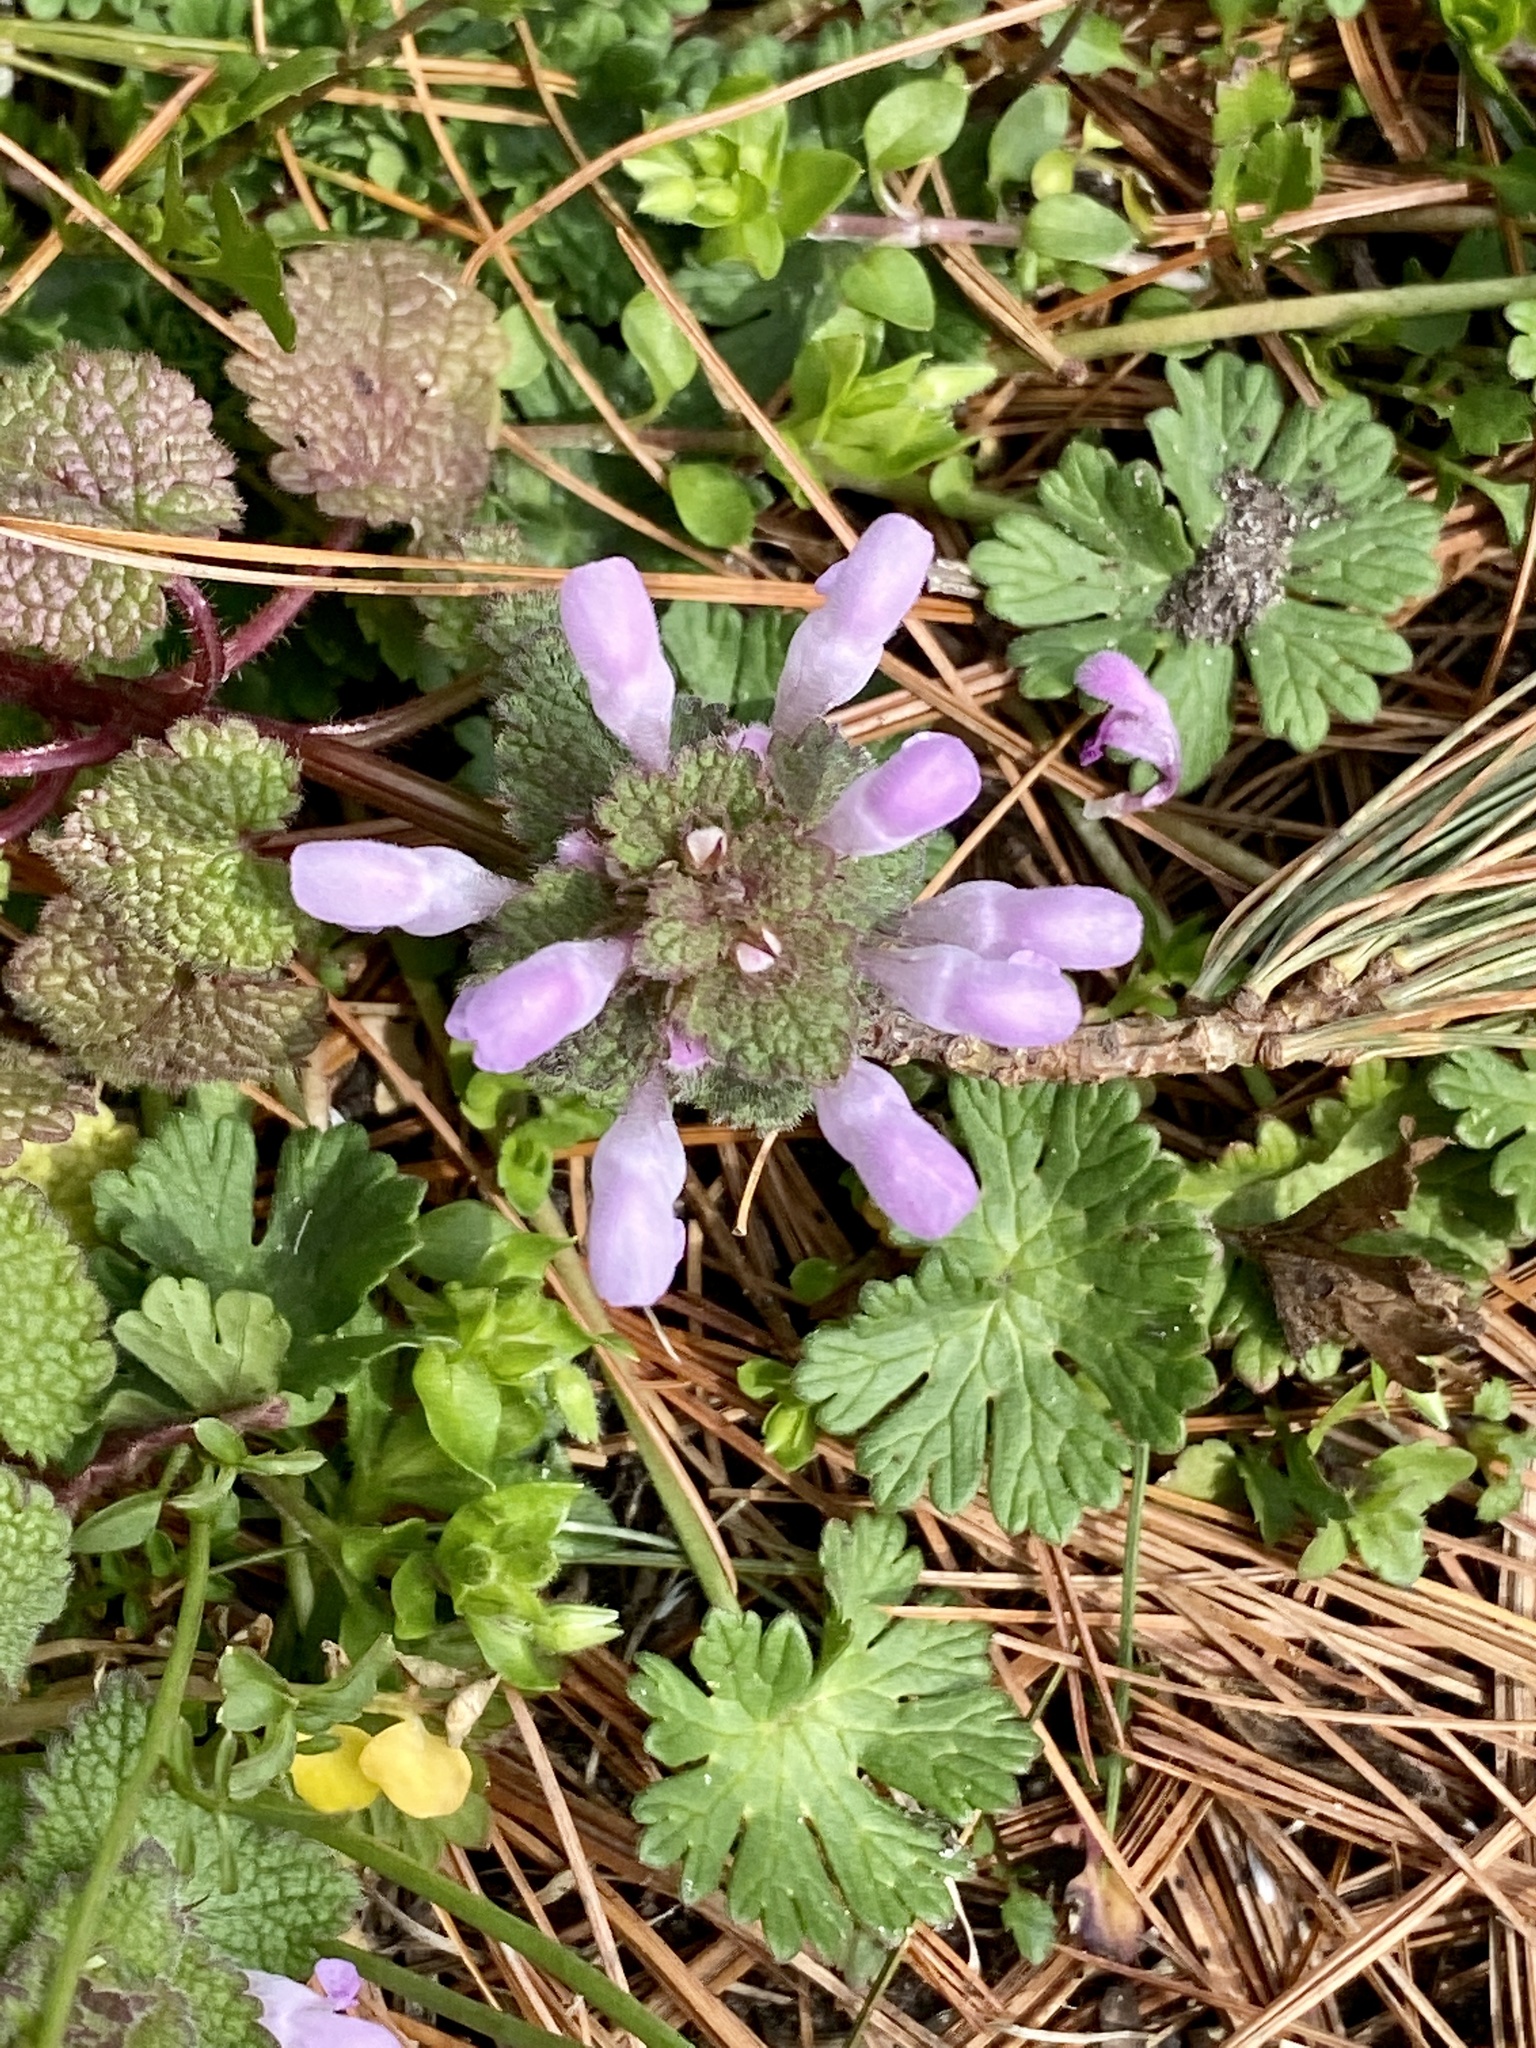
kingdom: Plantae
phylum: Tracheophyta
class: Magnoliopsida
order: Lamiales
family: Lamiaceae
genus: Lamium
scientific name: Lamium purpureum
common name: Red dead-nettle
